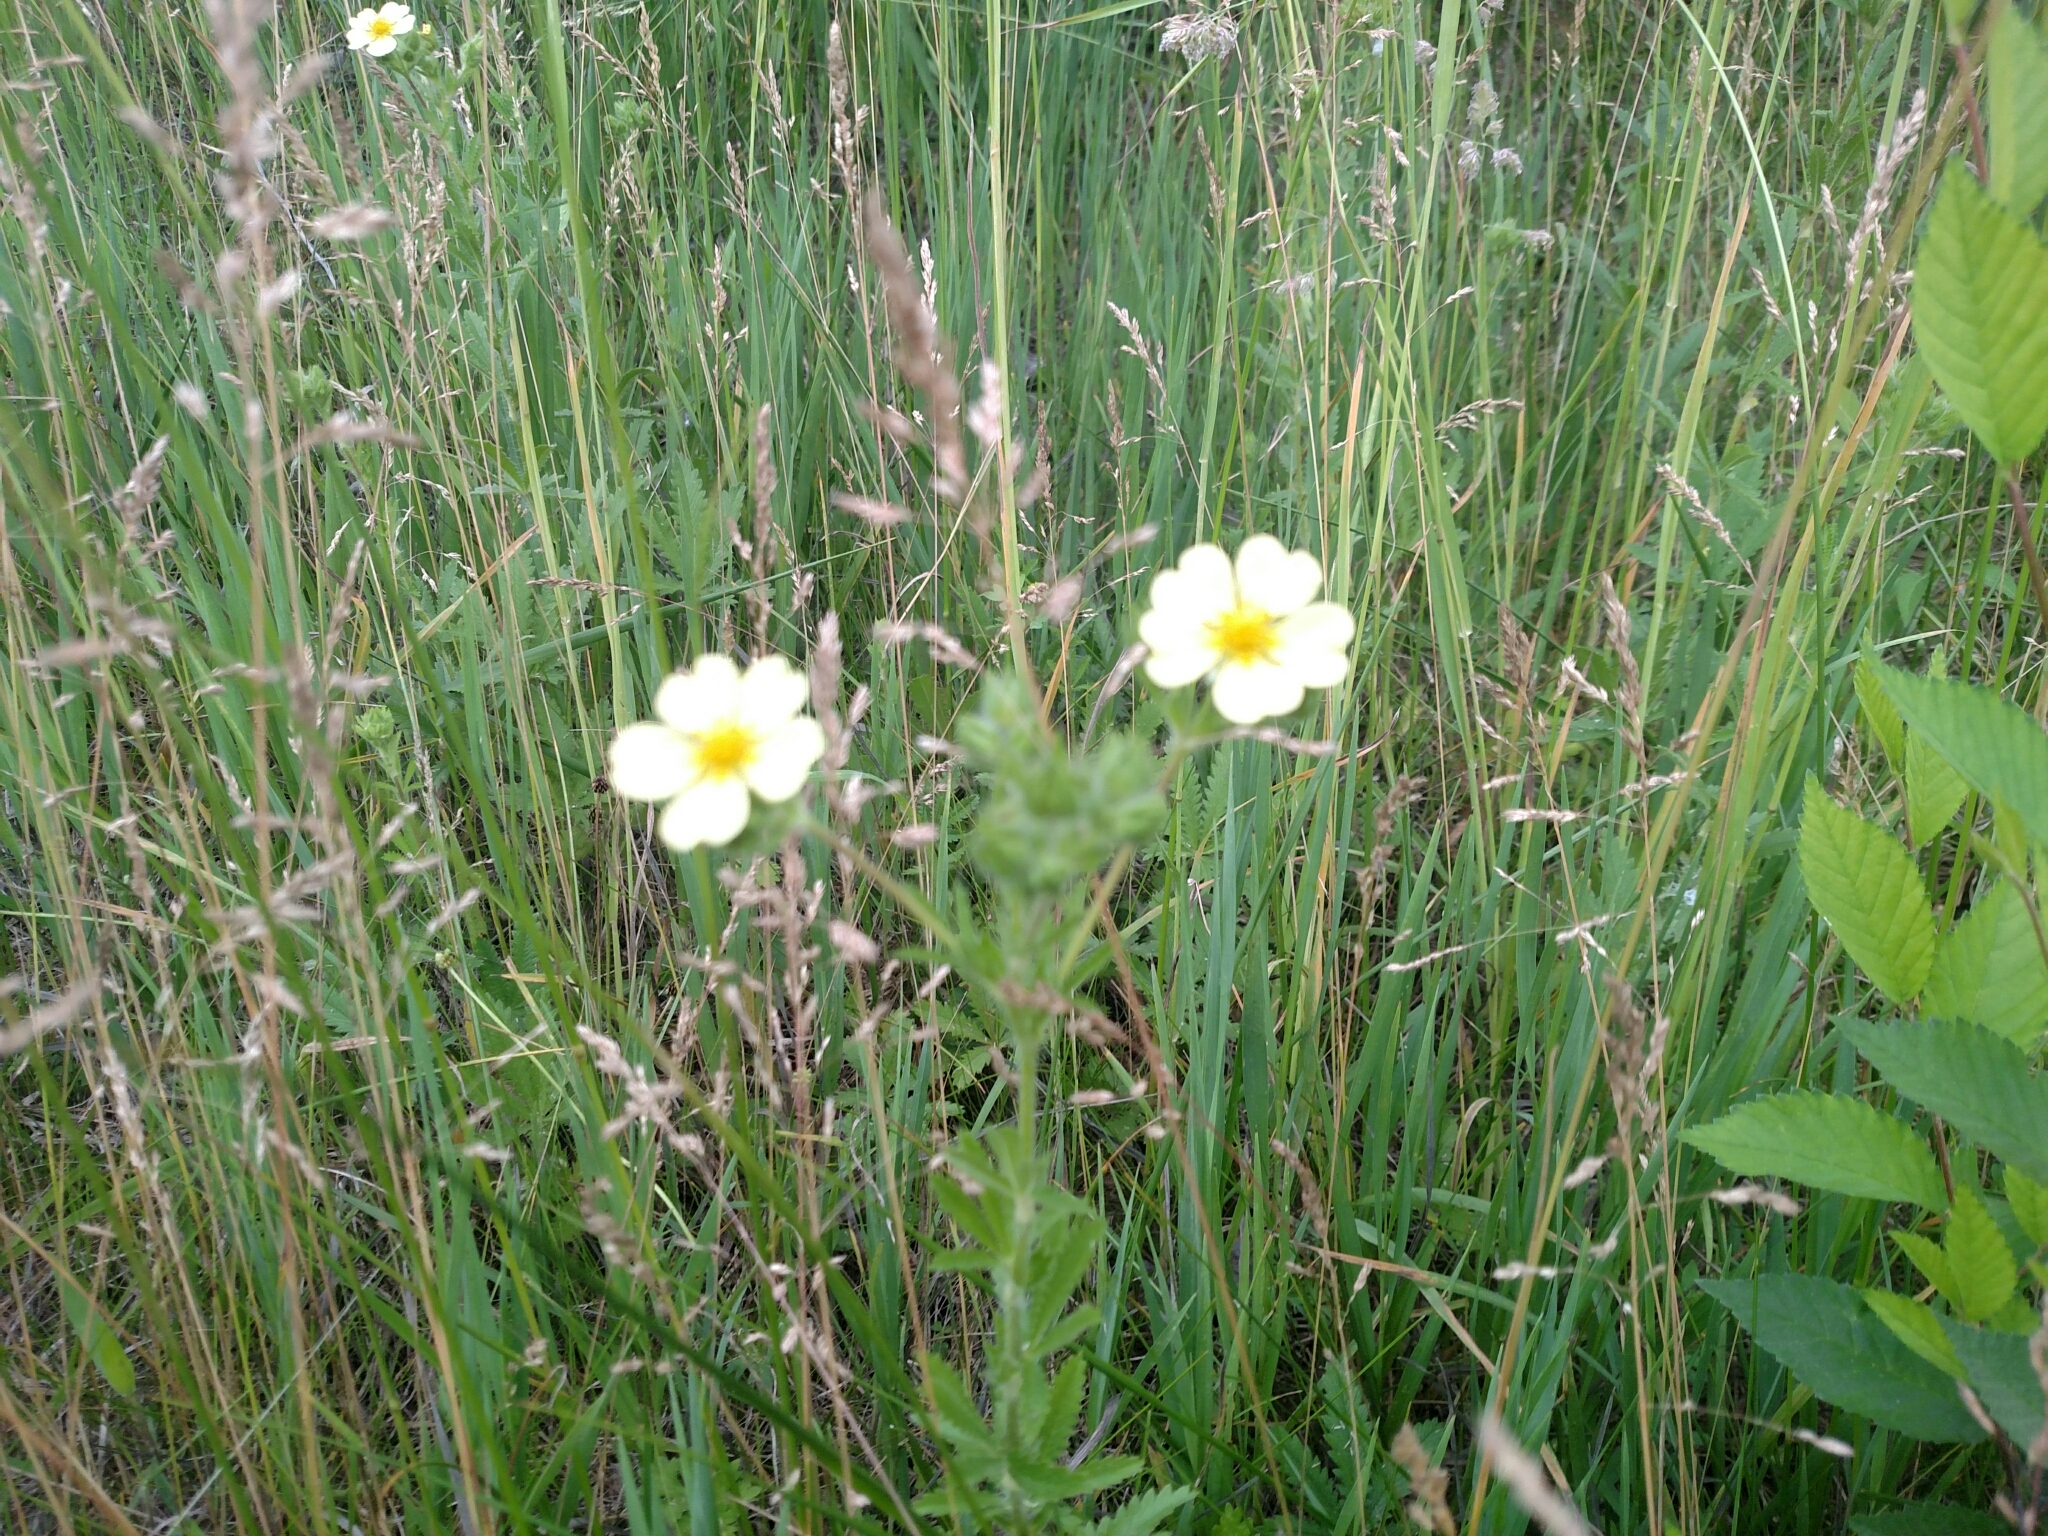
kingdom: Plantae
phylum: Tracheophyta
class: Magnoliopsida
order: Rosales
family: Rosaceae
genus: Potentilla
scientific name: Potentilla recta
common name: Sulphur cinquefoil
